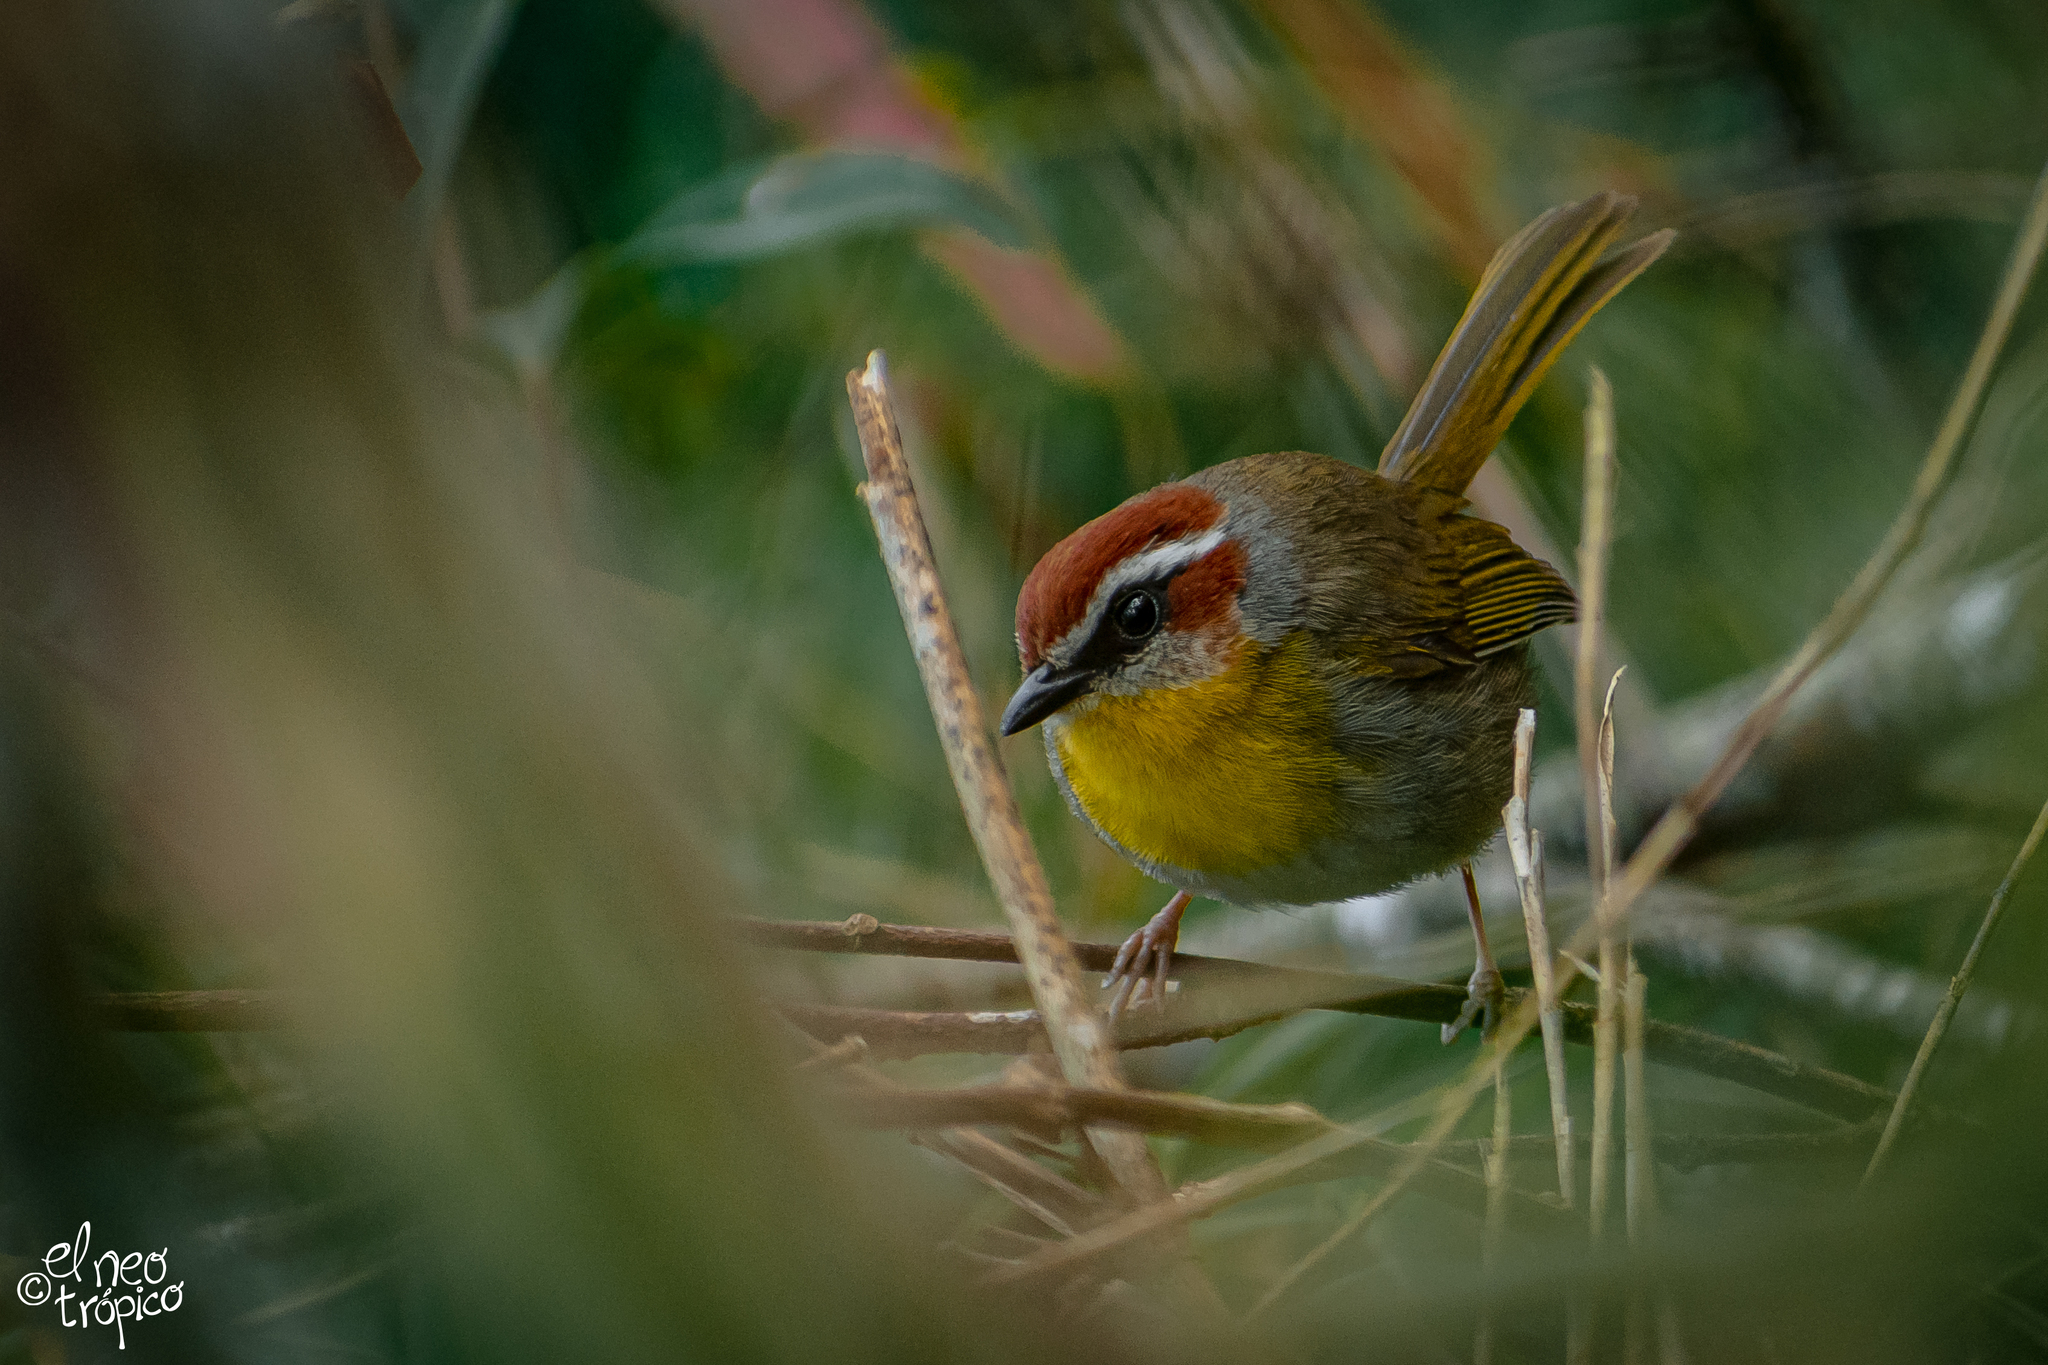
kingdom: Animalia
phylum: Chordata
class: Aves
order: Passeriformes
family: Parulidae
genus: Basileuterus
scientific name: Basileuterus rufifrons
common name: Rufous-capped warbler
